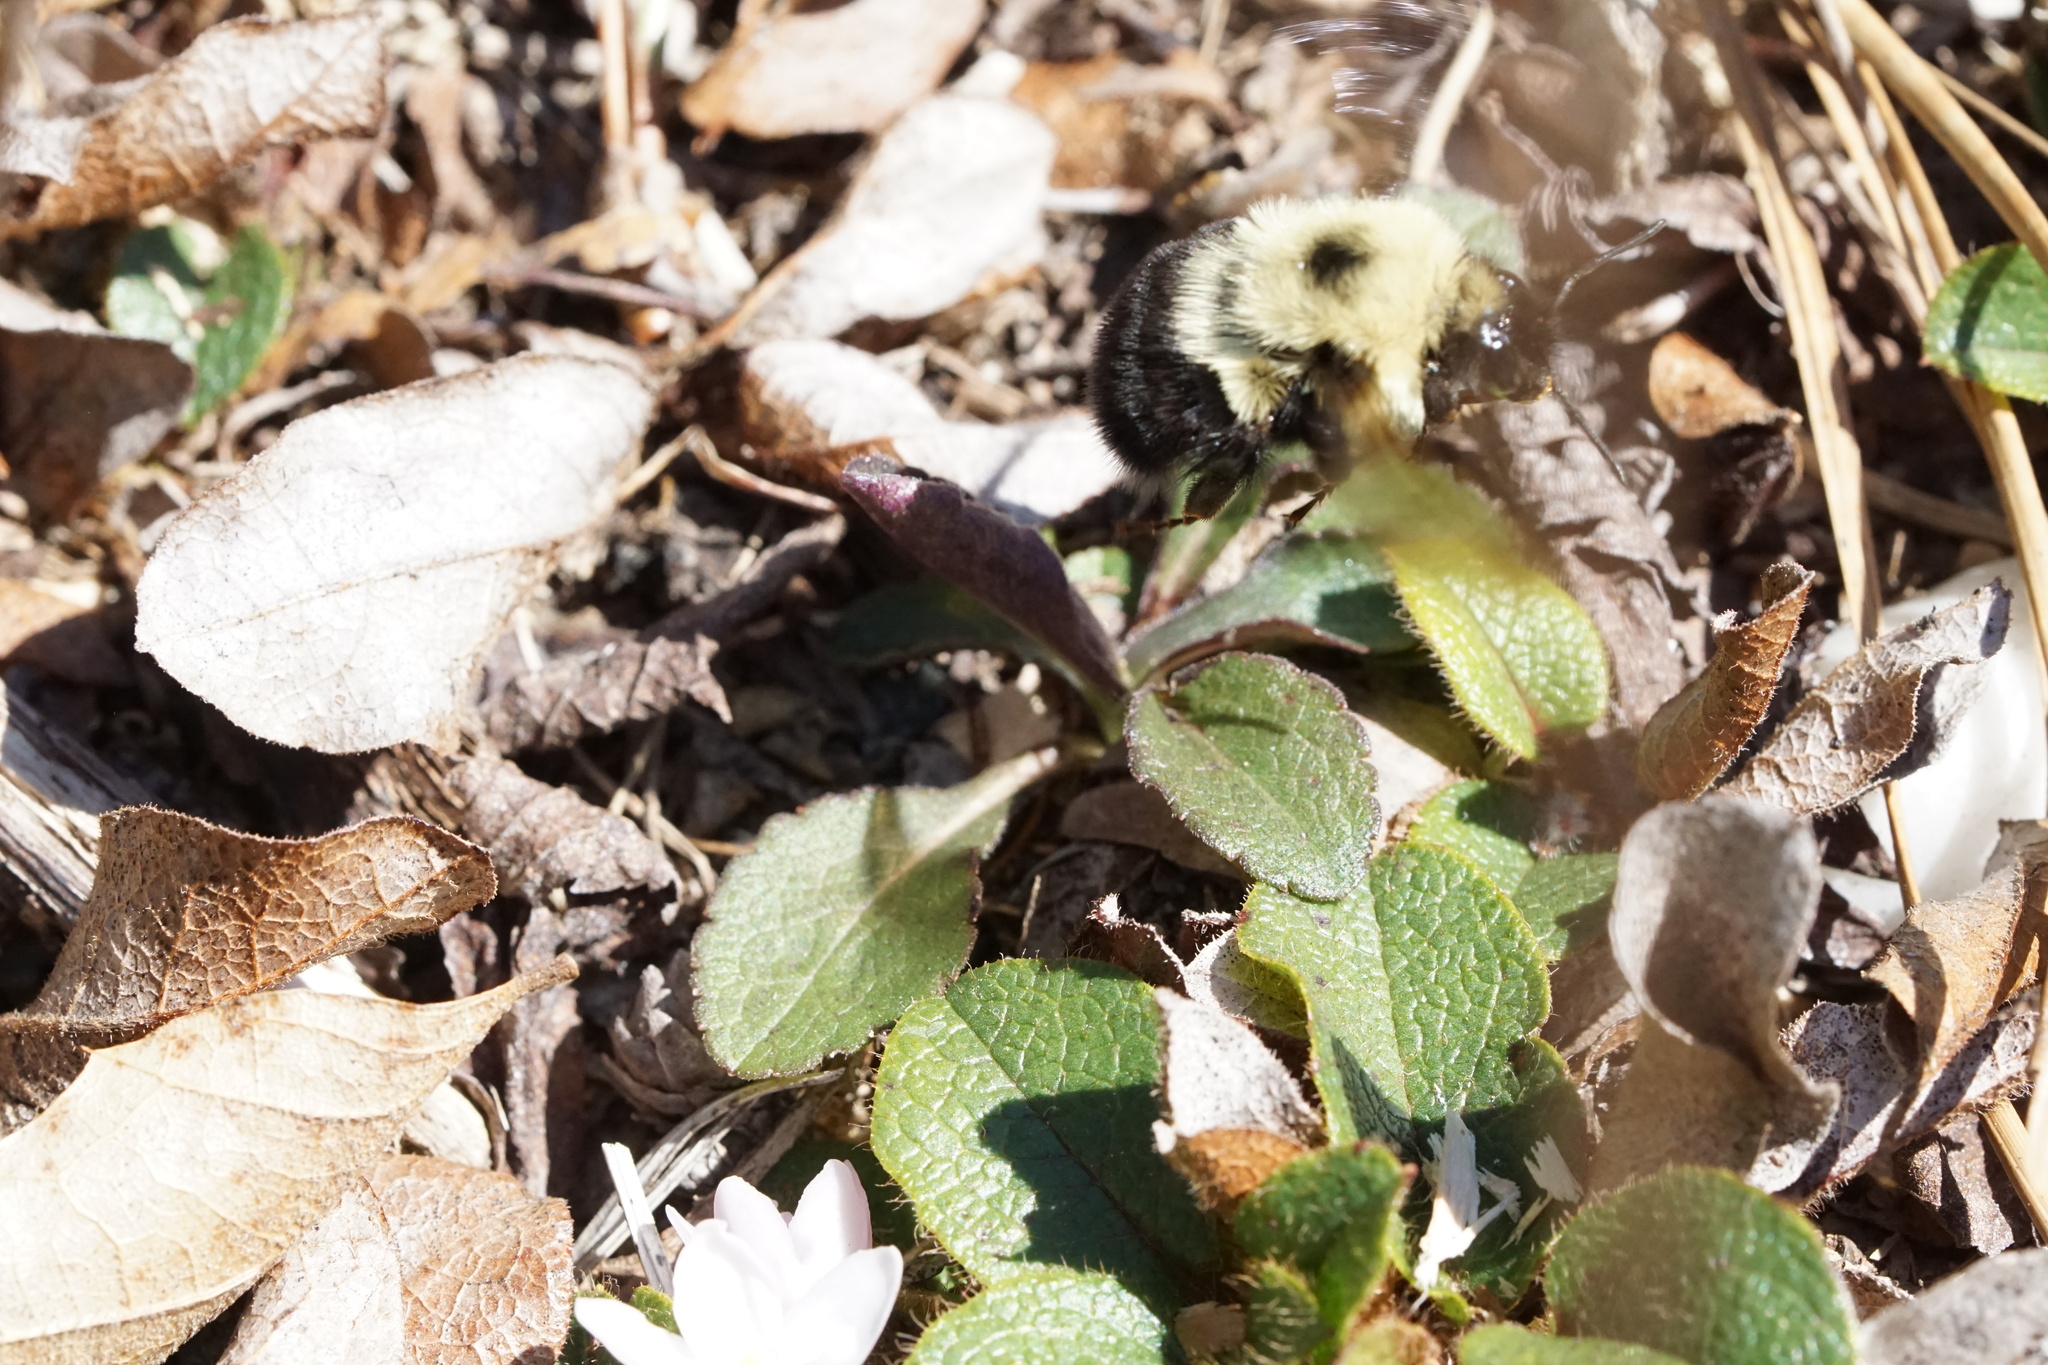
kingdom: Animalia
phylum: Arthropoda
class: Insecta
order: Hymenoptera
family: Apidae
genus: Bombus
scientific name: Bombus bimaculatus
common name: Two-spotted bumble bee
